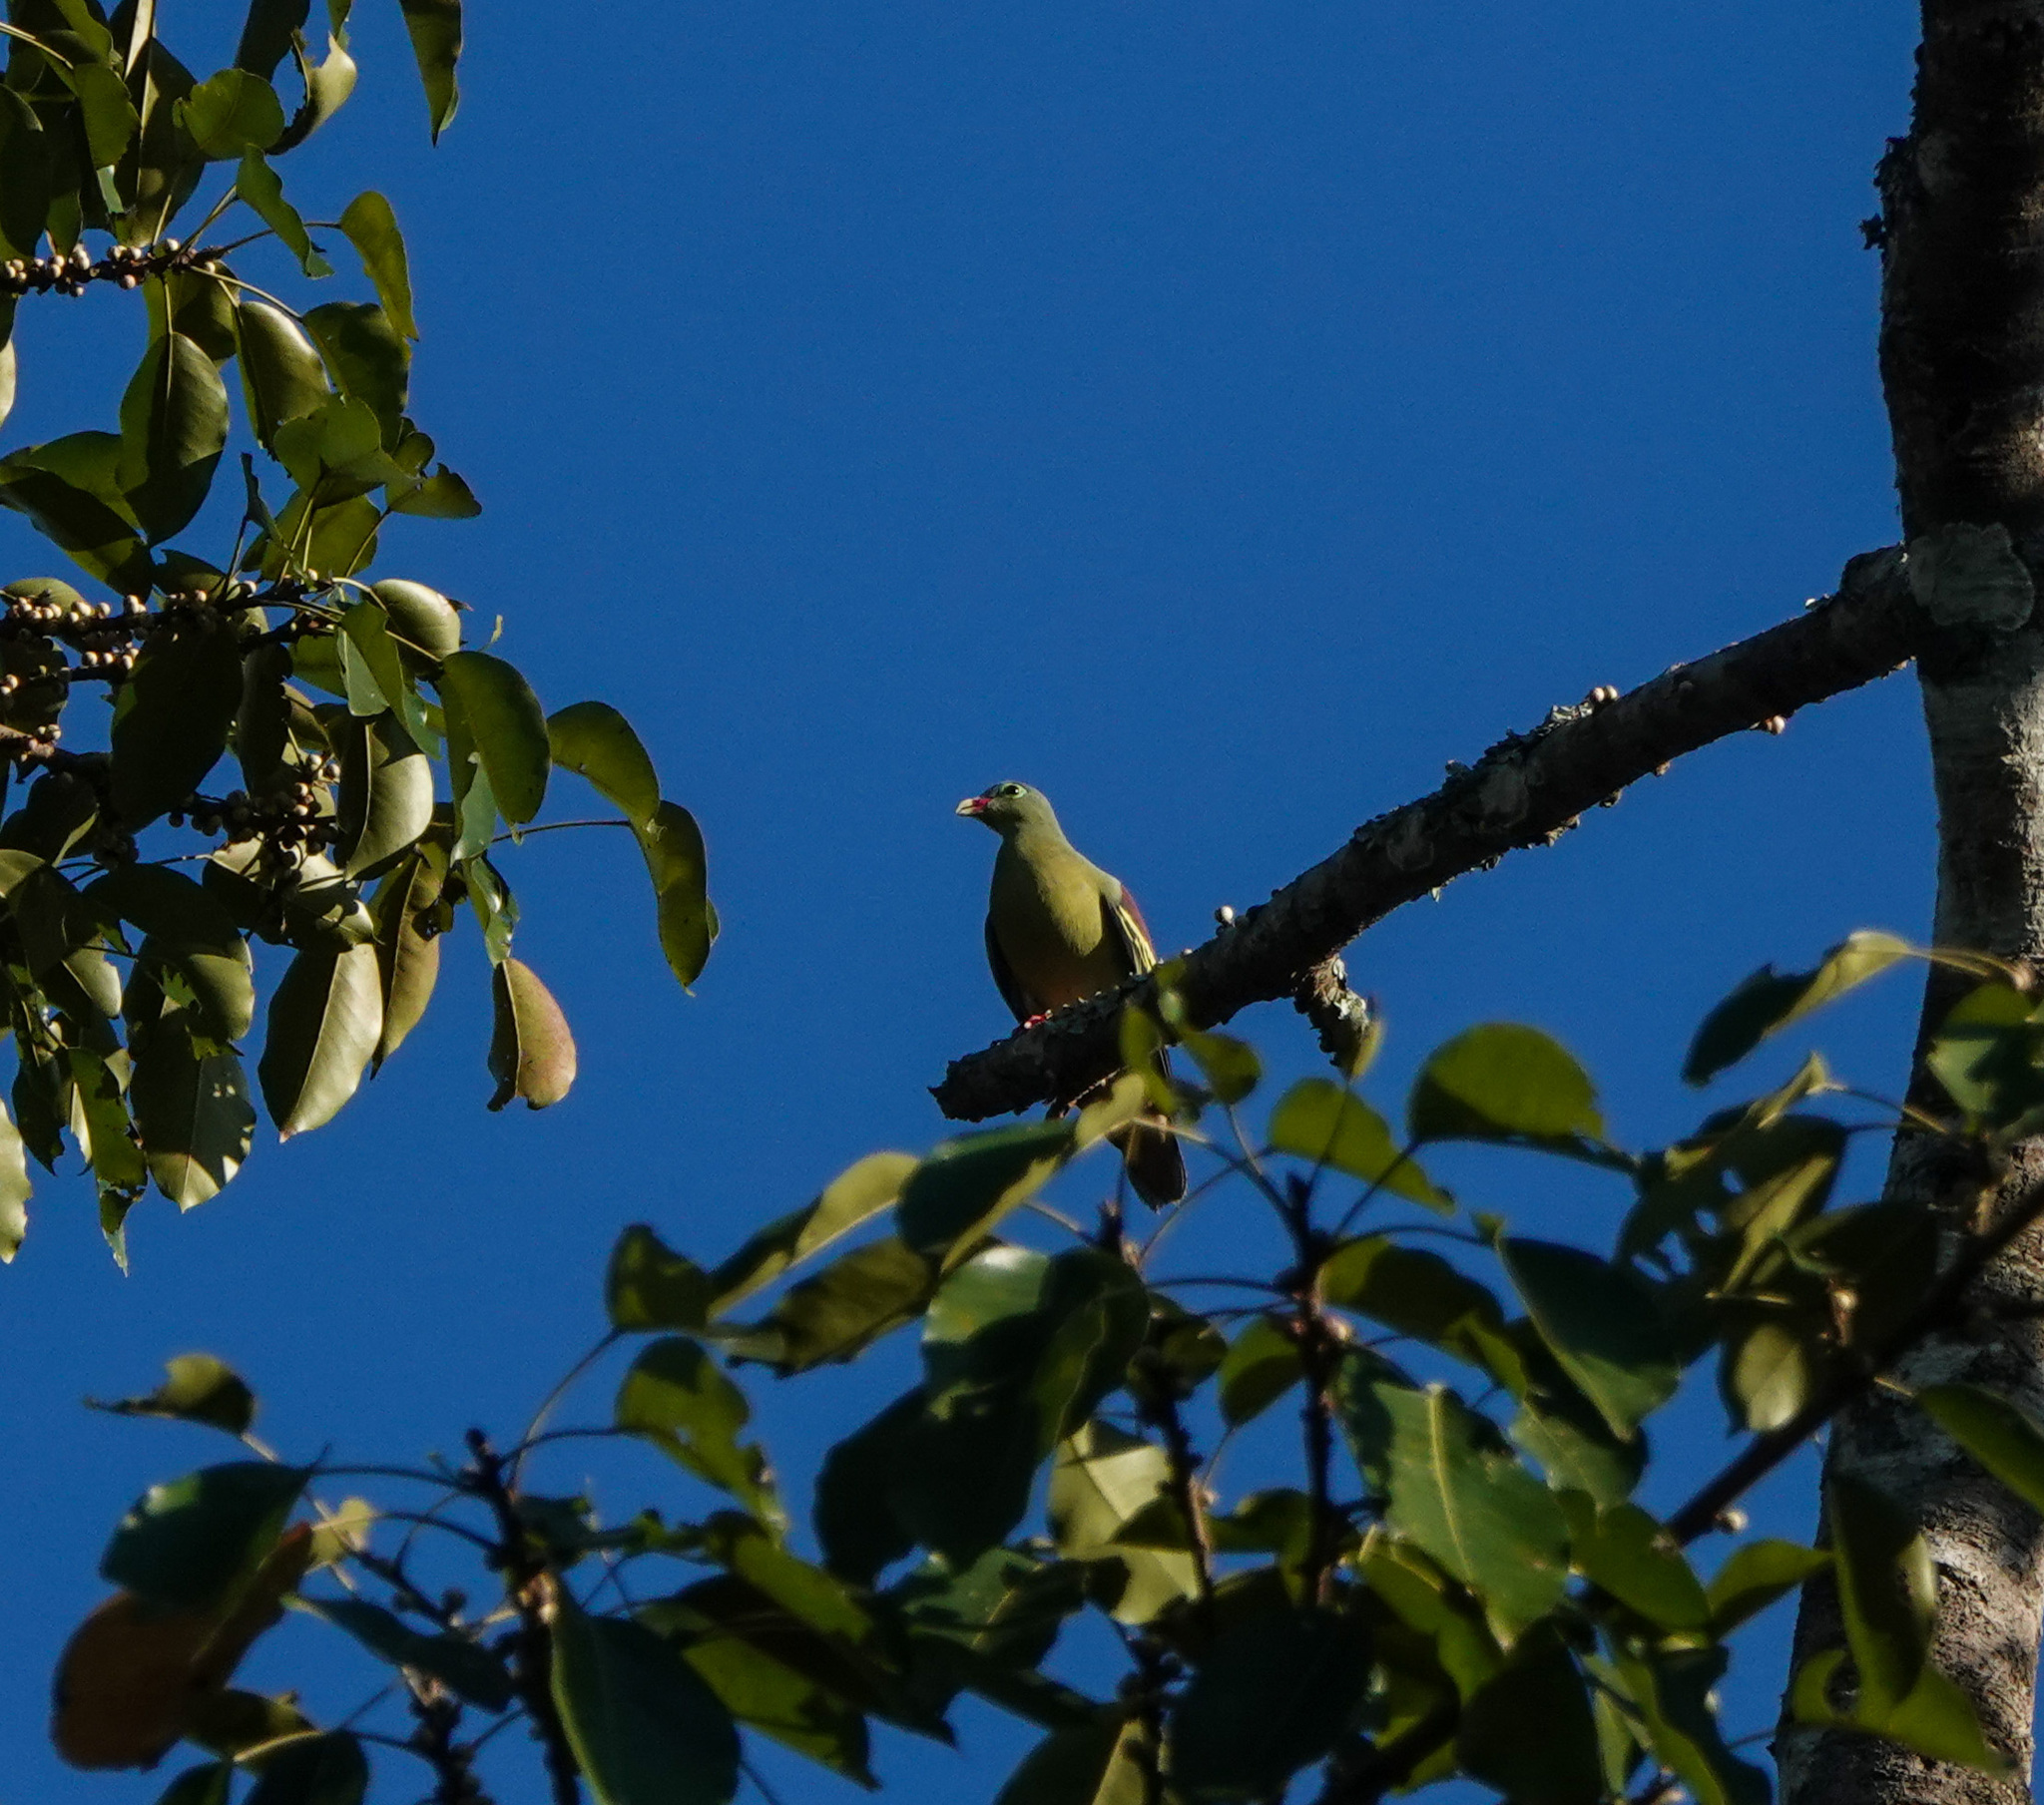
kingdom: Animalia
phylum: Chordata
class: Aves
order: Columbiformes
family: Columbidae
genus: Treron
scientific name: Treron curvirostra
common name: Thick-billed green pigeon
